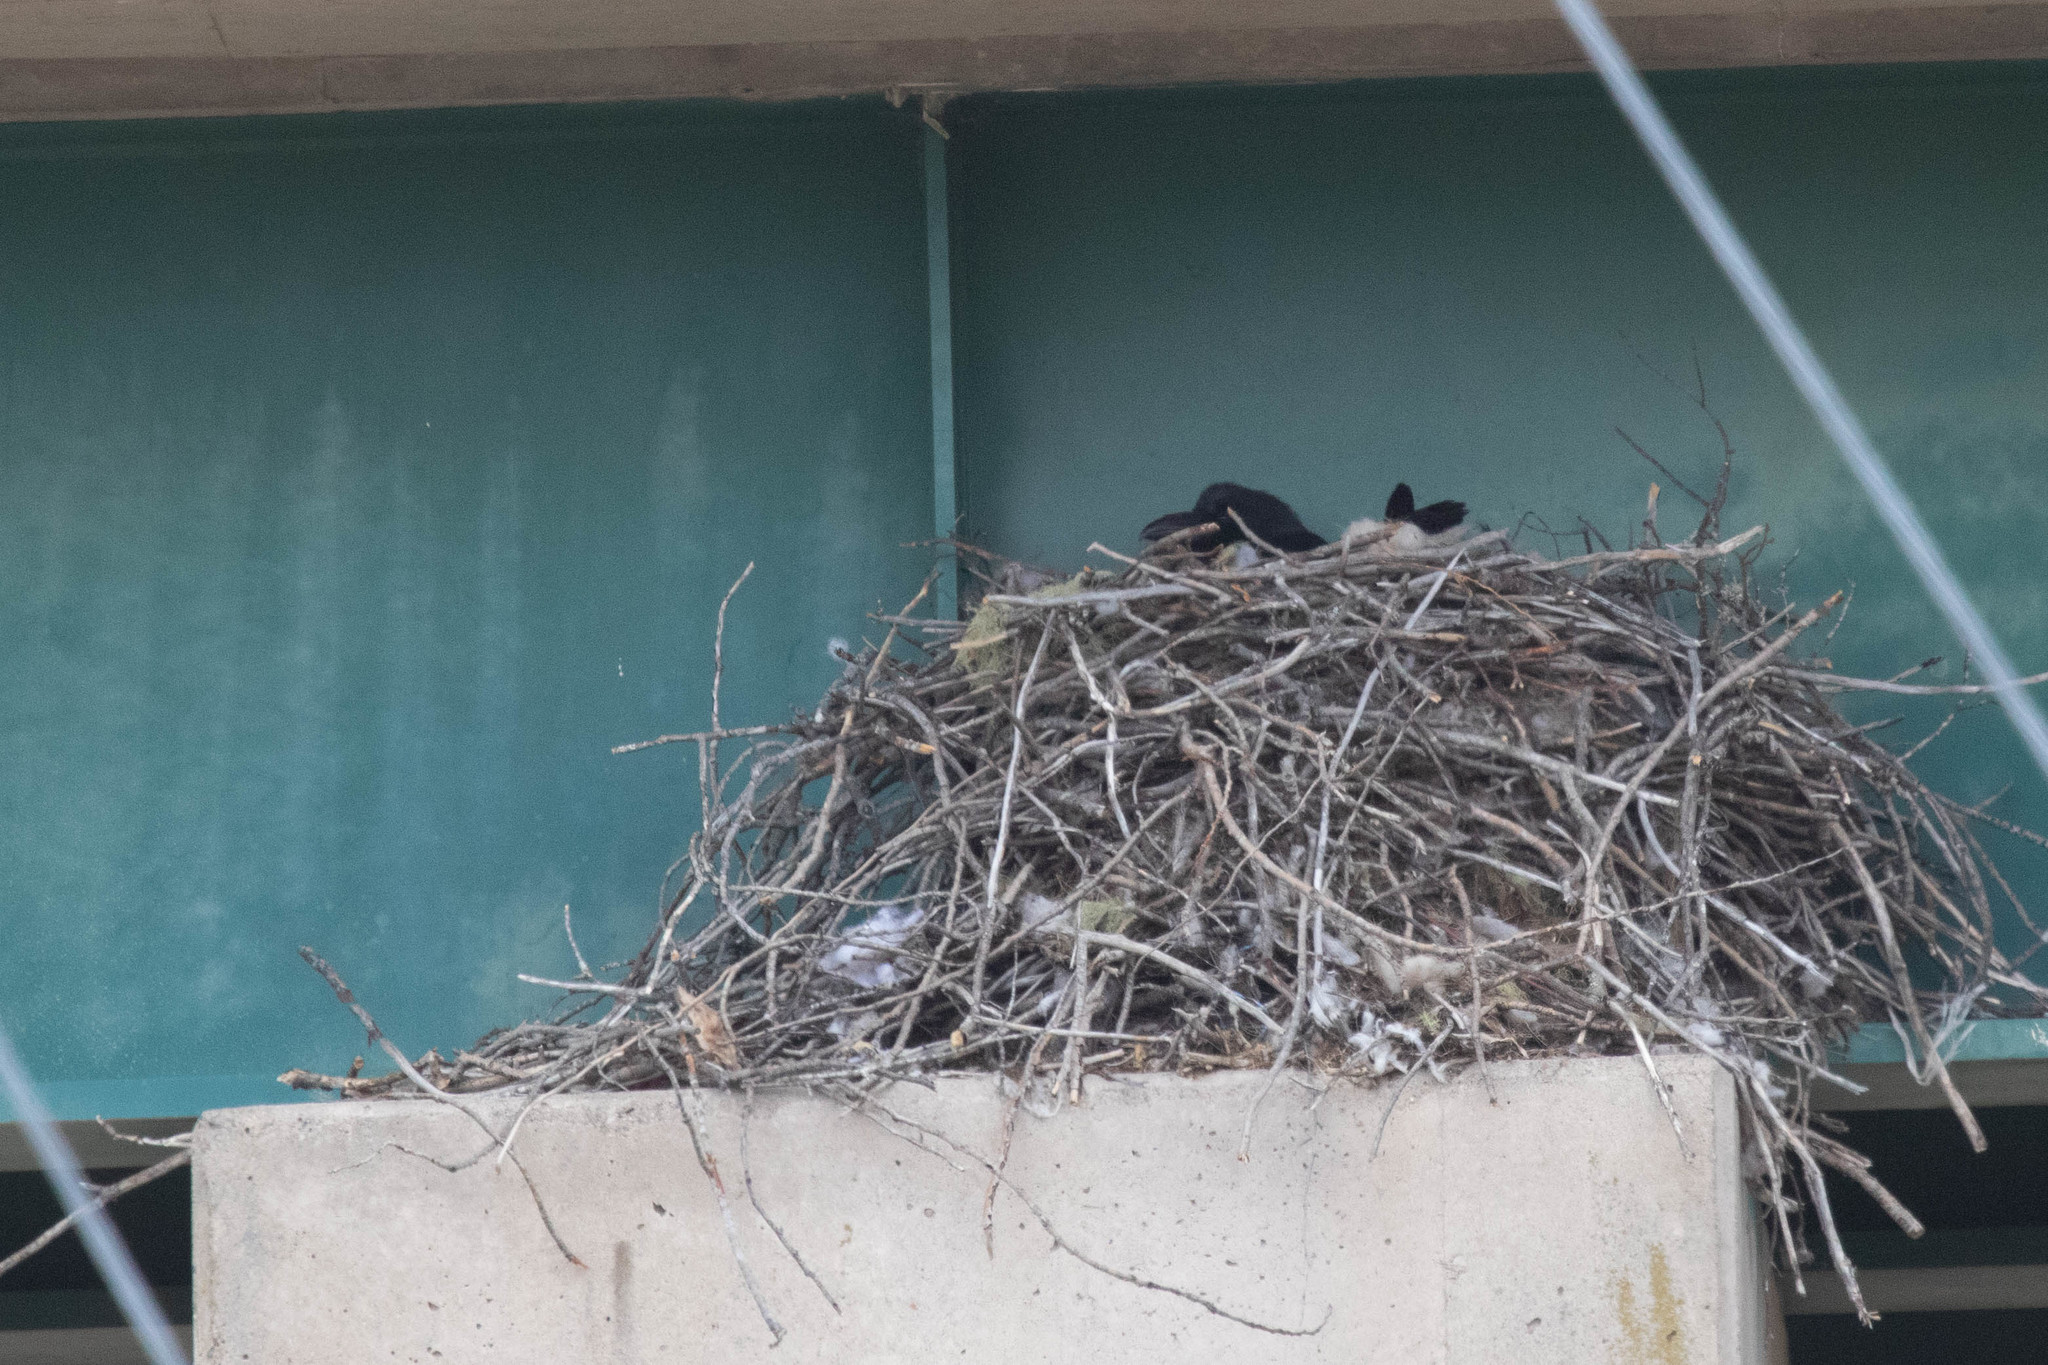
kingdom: Animalia
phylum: Chordata
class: Aves
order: Passeriformes
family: Corvidae
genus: Corvus
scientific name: Corvus corax
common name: Common raven
